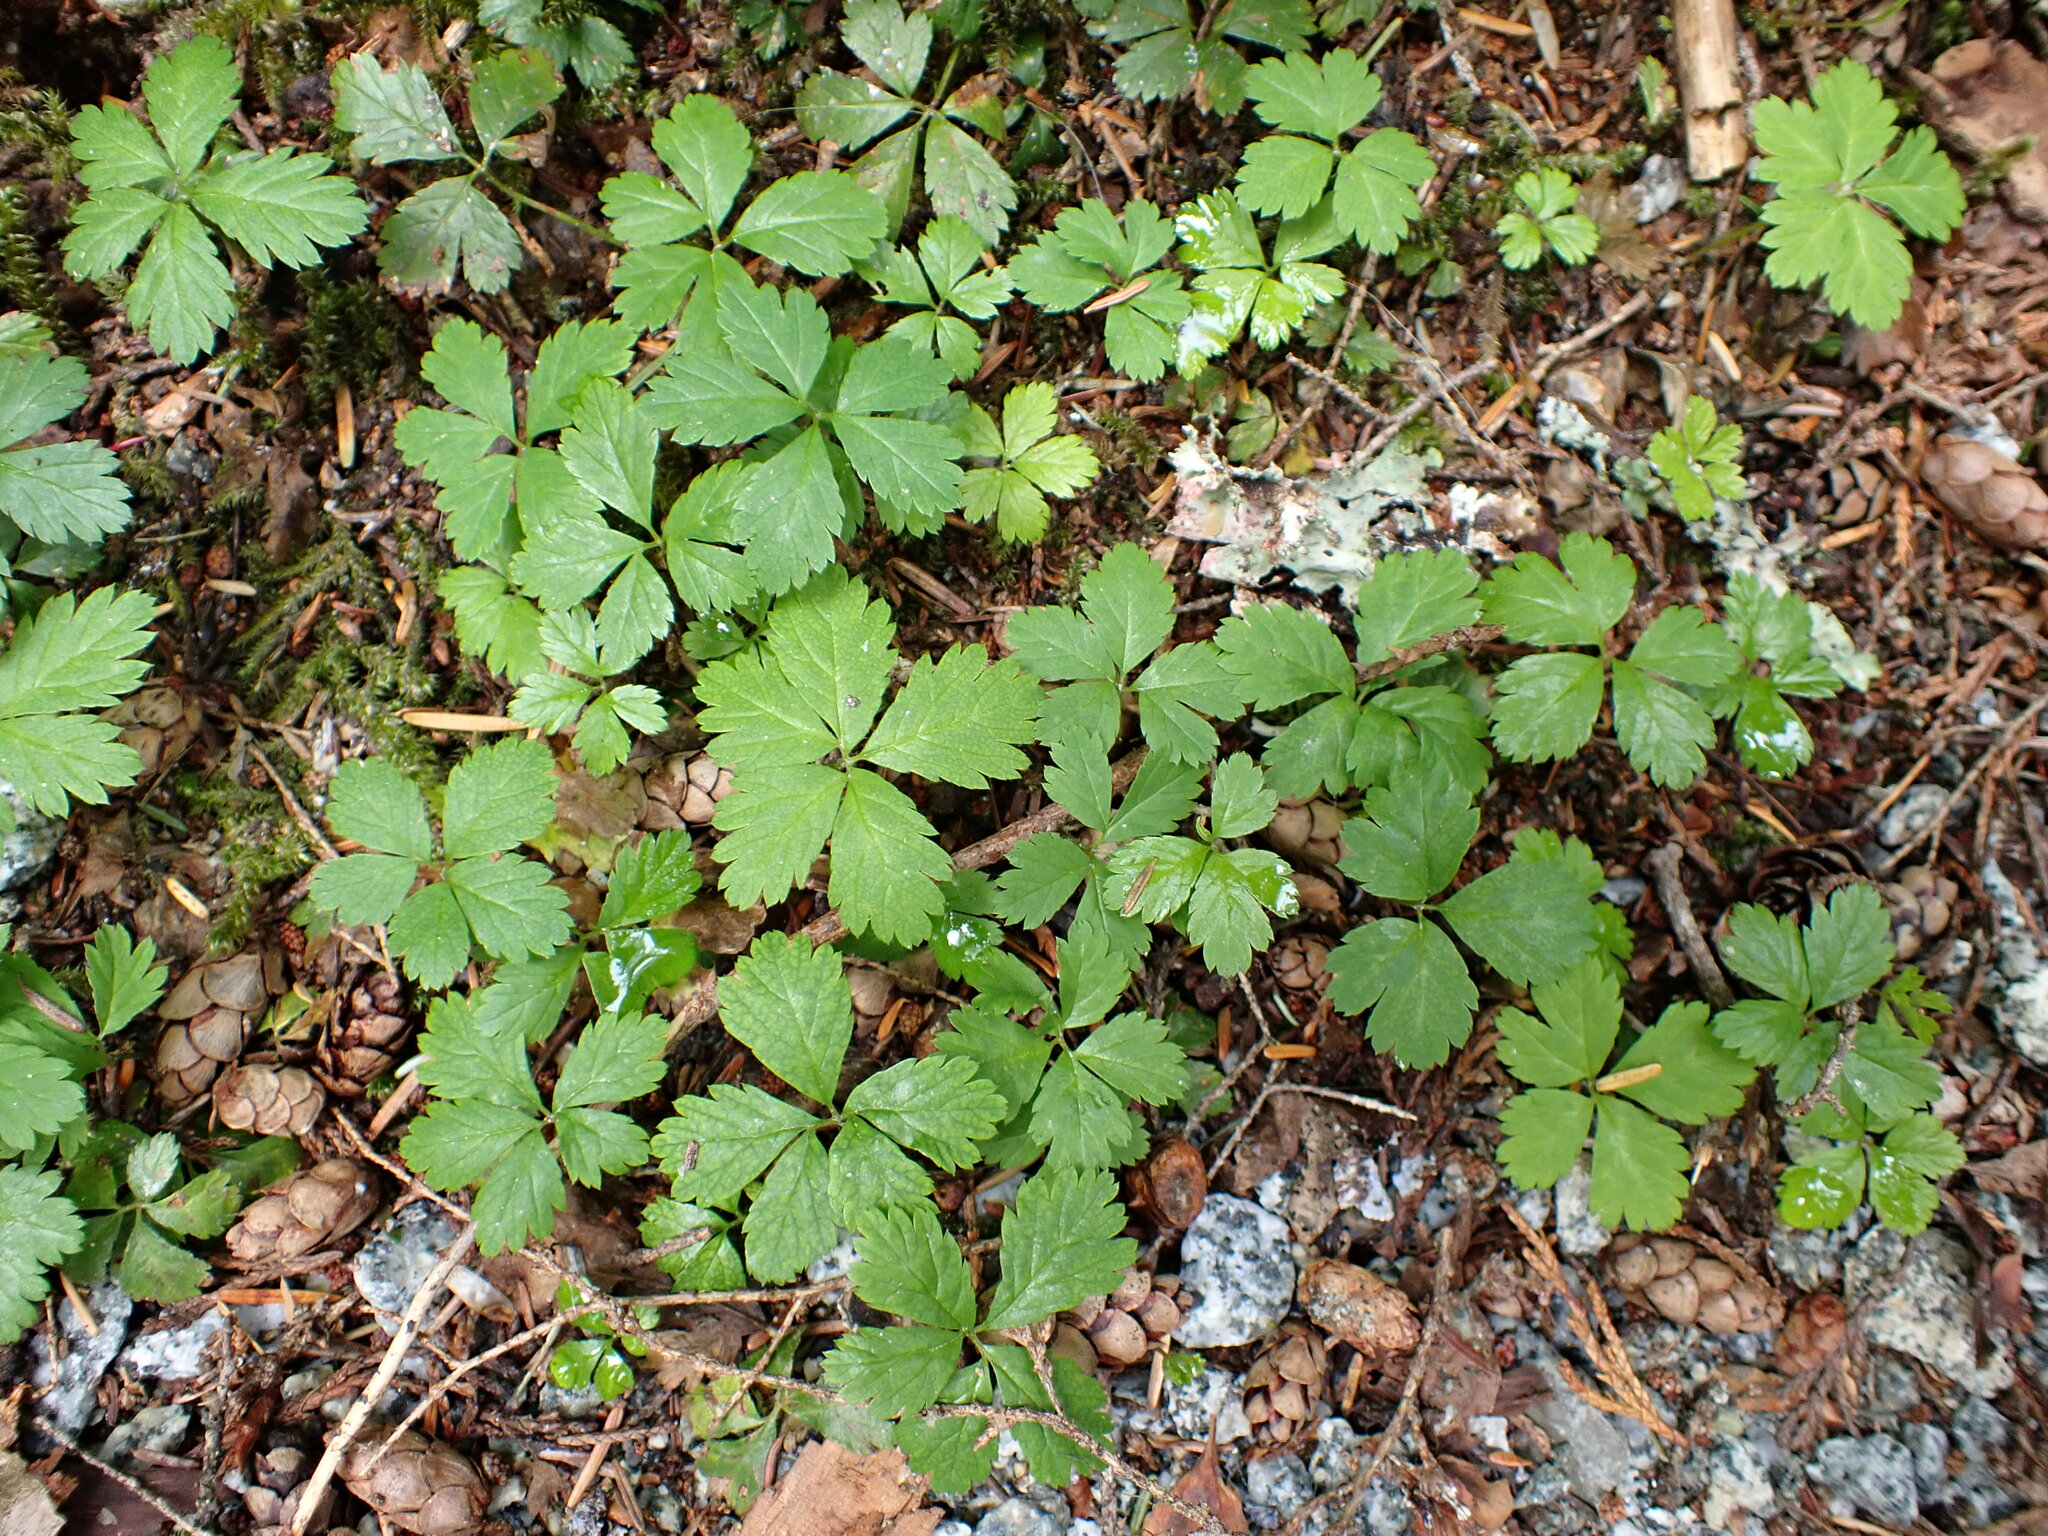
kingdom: Plantae
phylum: Tracheophyta
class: Magnoliopsida
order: Rosales
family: Rosaceae
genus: Rubus
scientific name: Rubus pedatus
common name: Creeping raspberry
